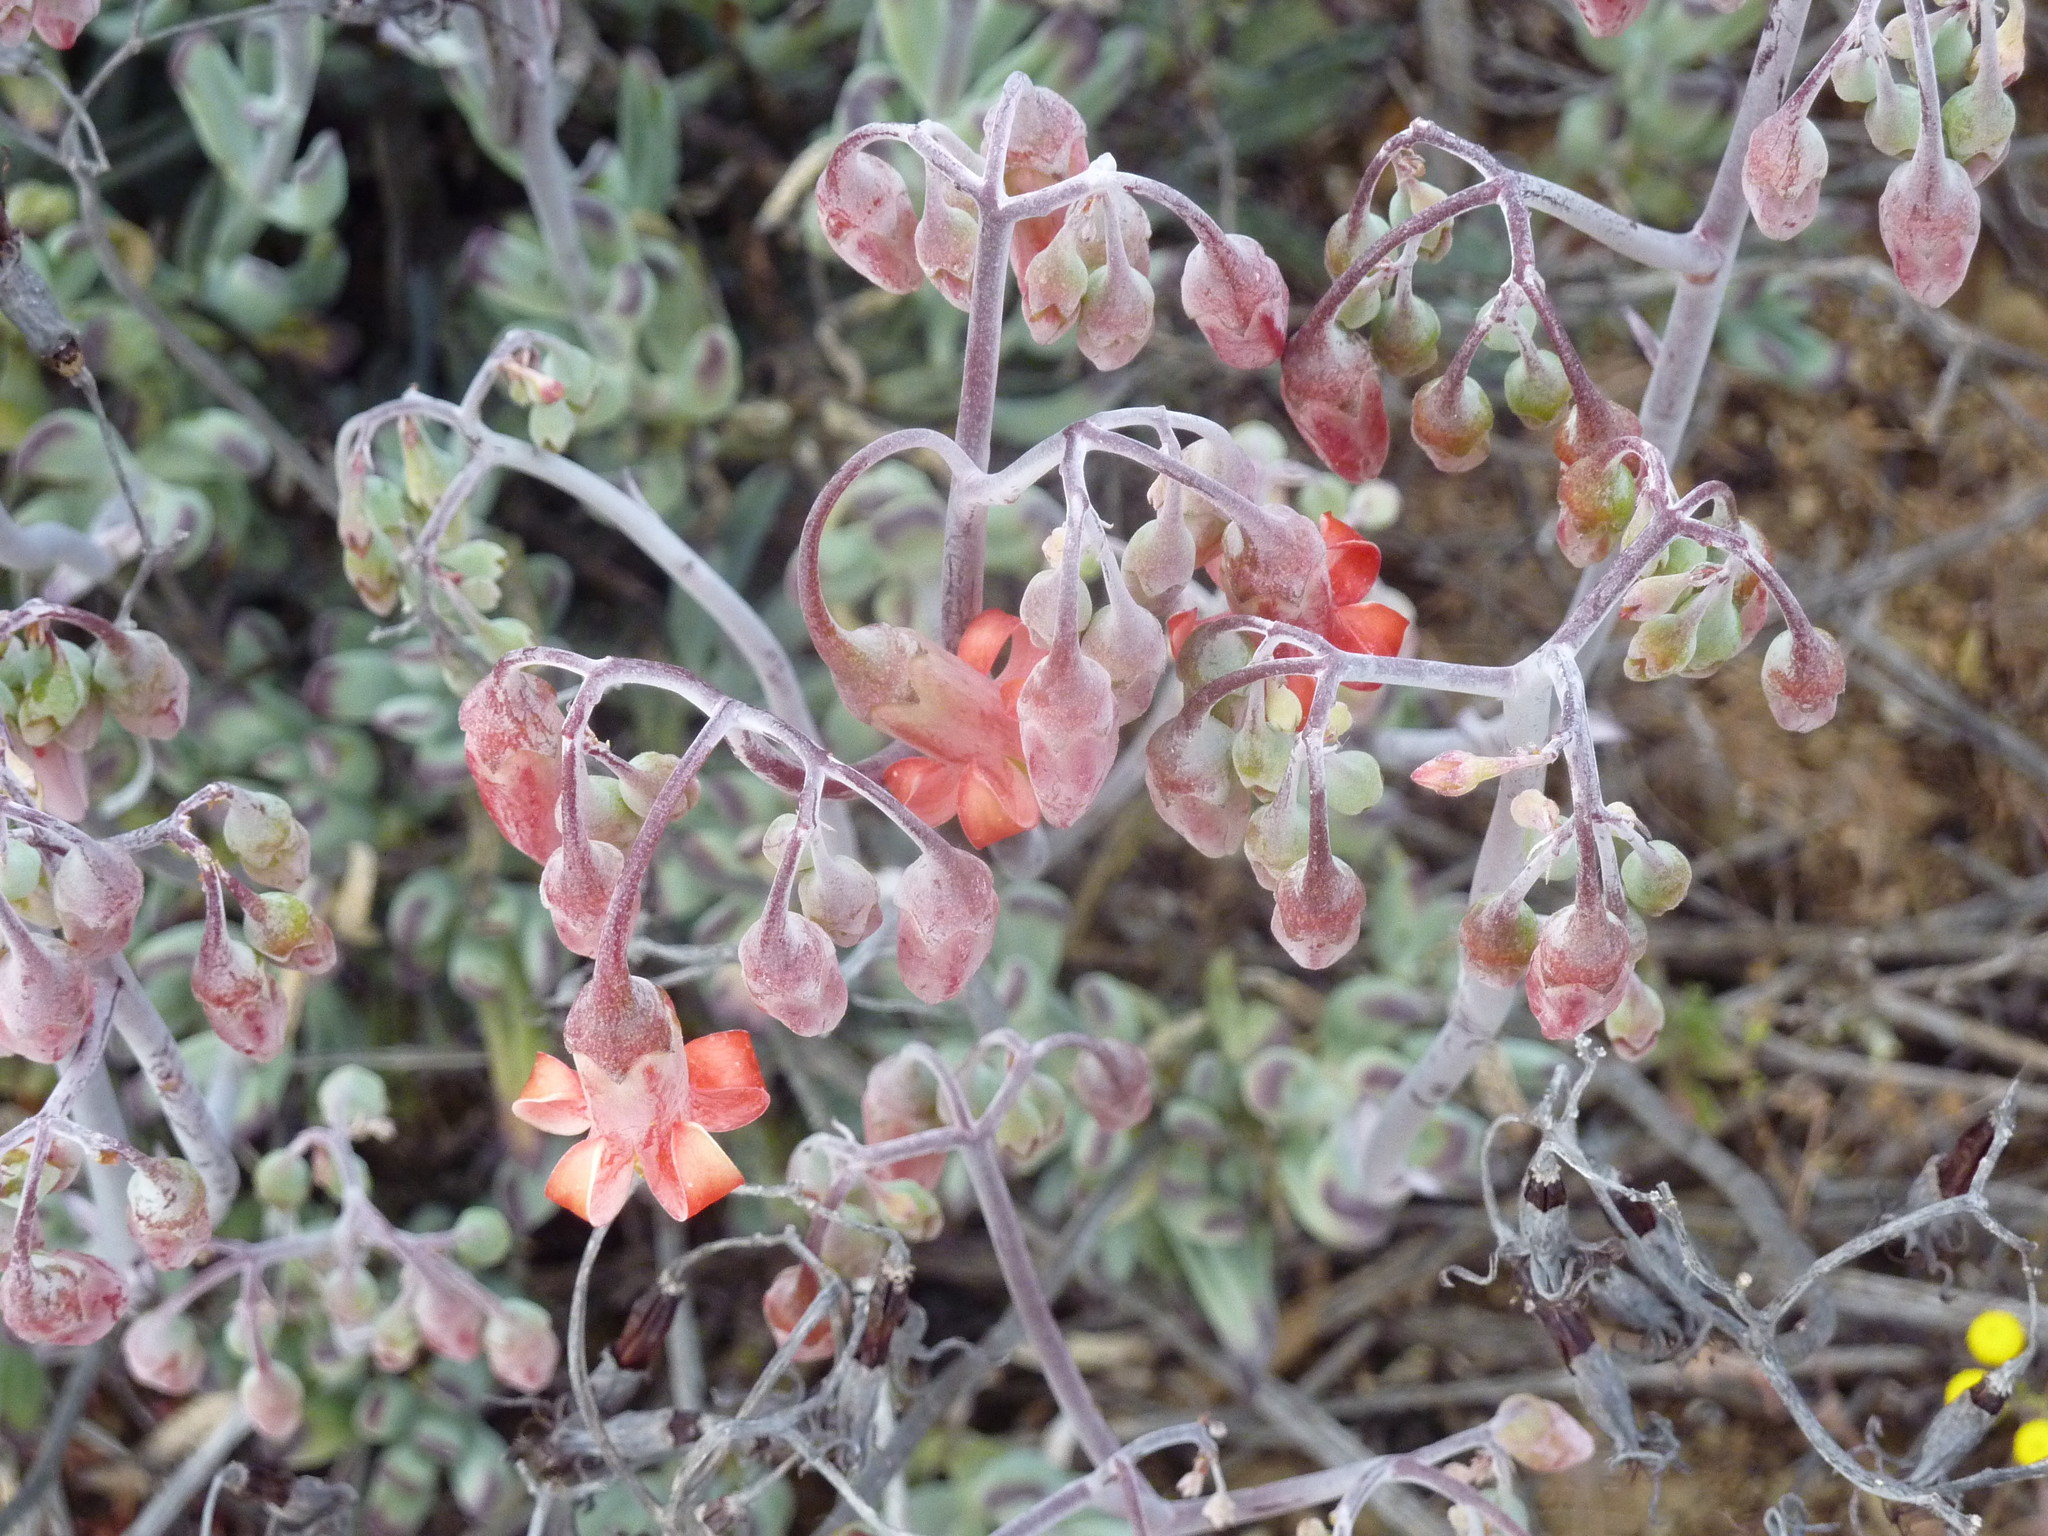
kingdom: Plantae
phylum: Tracheophyta
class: Magnoliopsida
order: Saxifragales
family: Crassulaceae
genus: Cotyledon
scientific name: Cotyledon orbiculata
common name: Pig's ear
